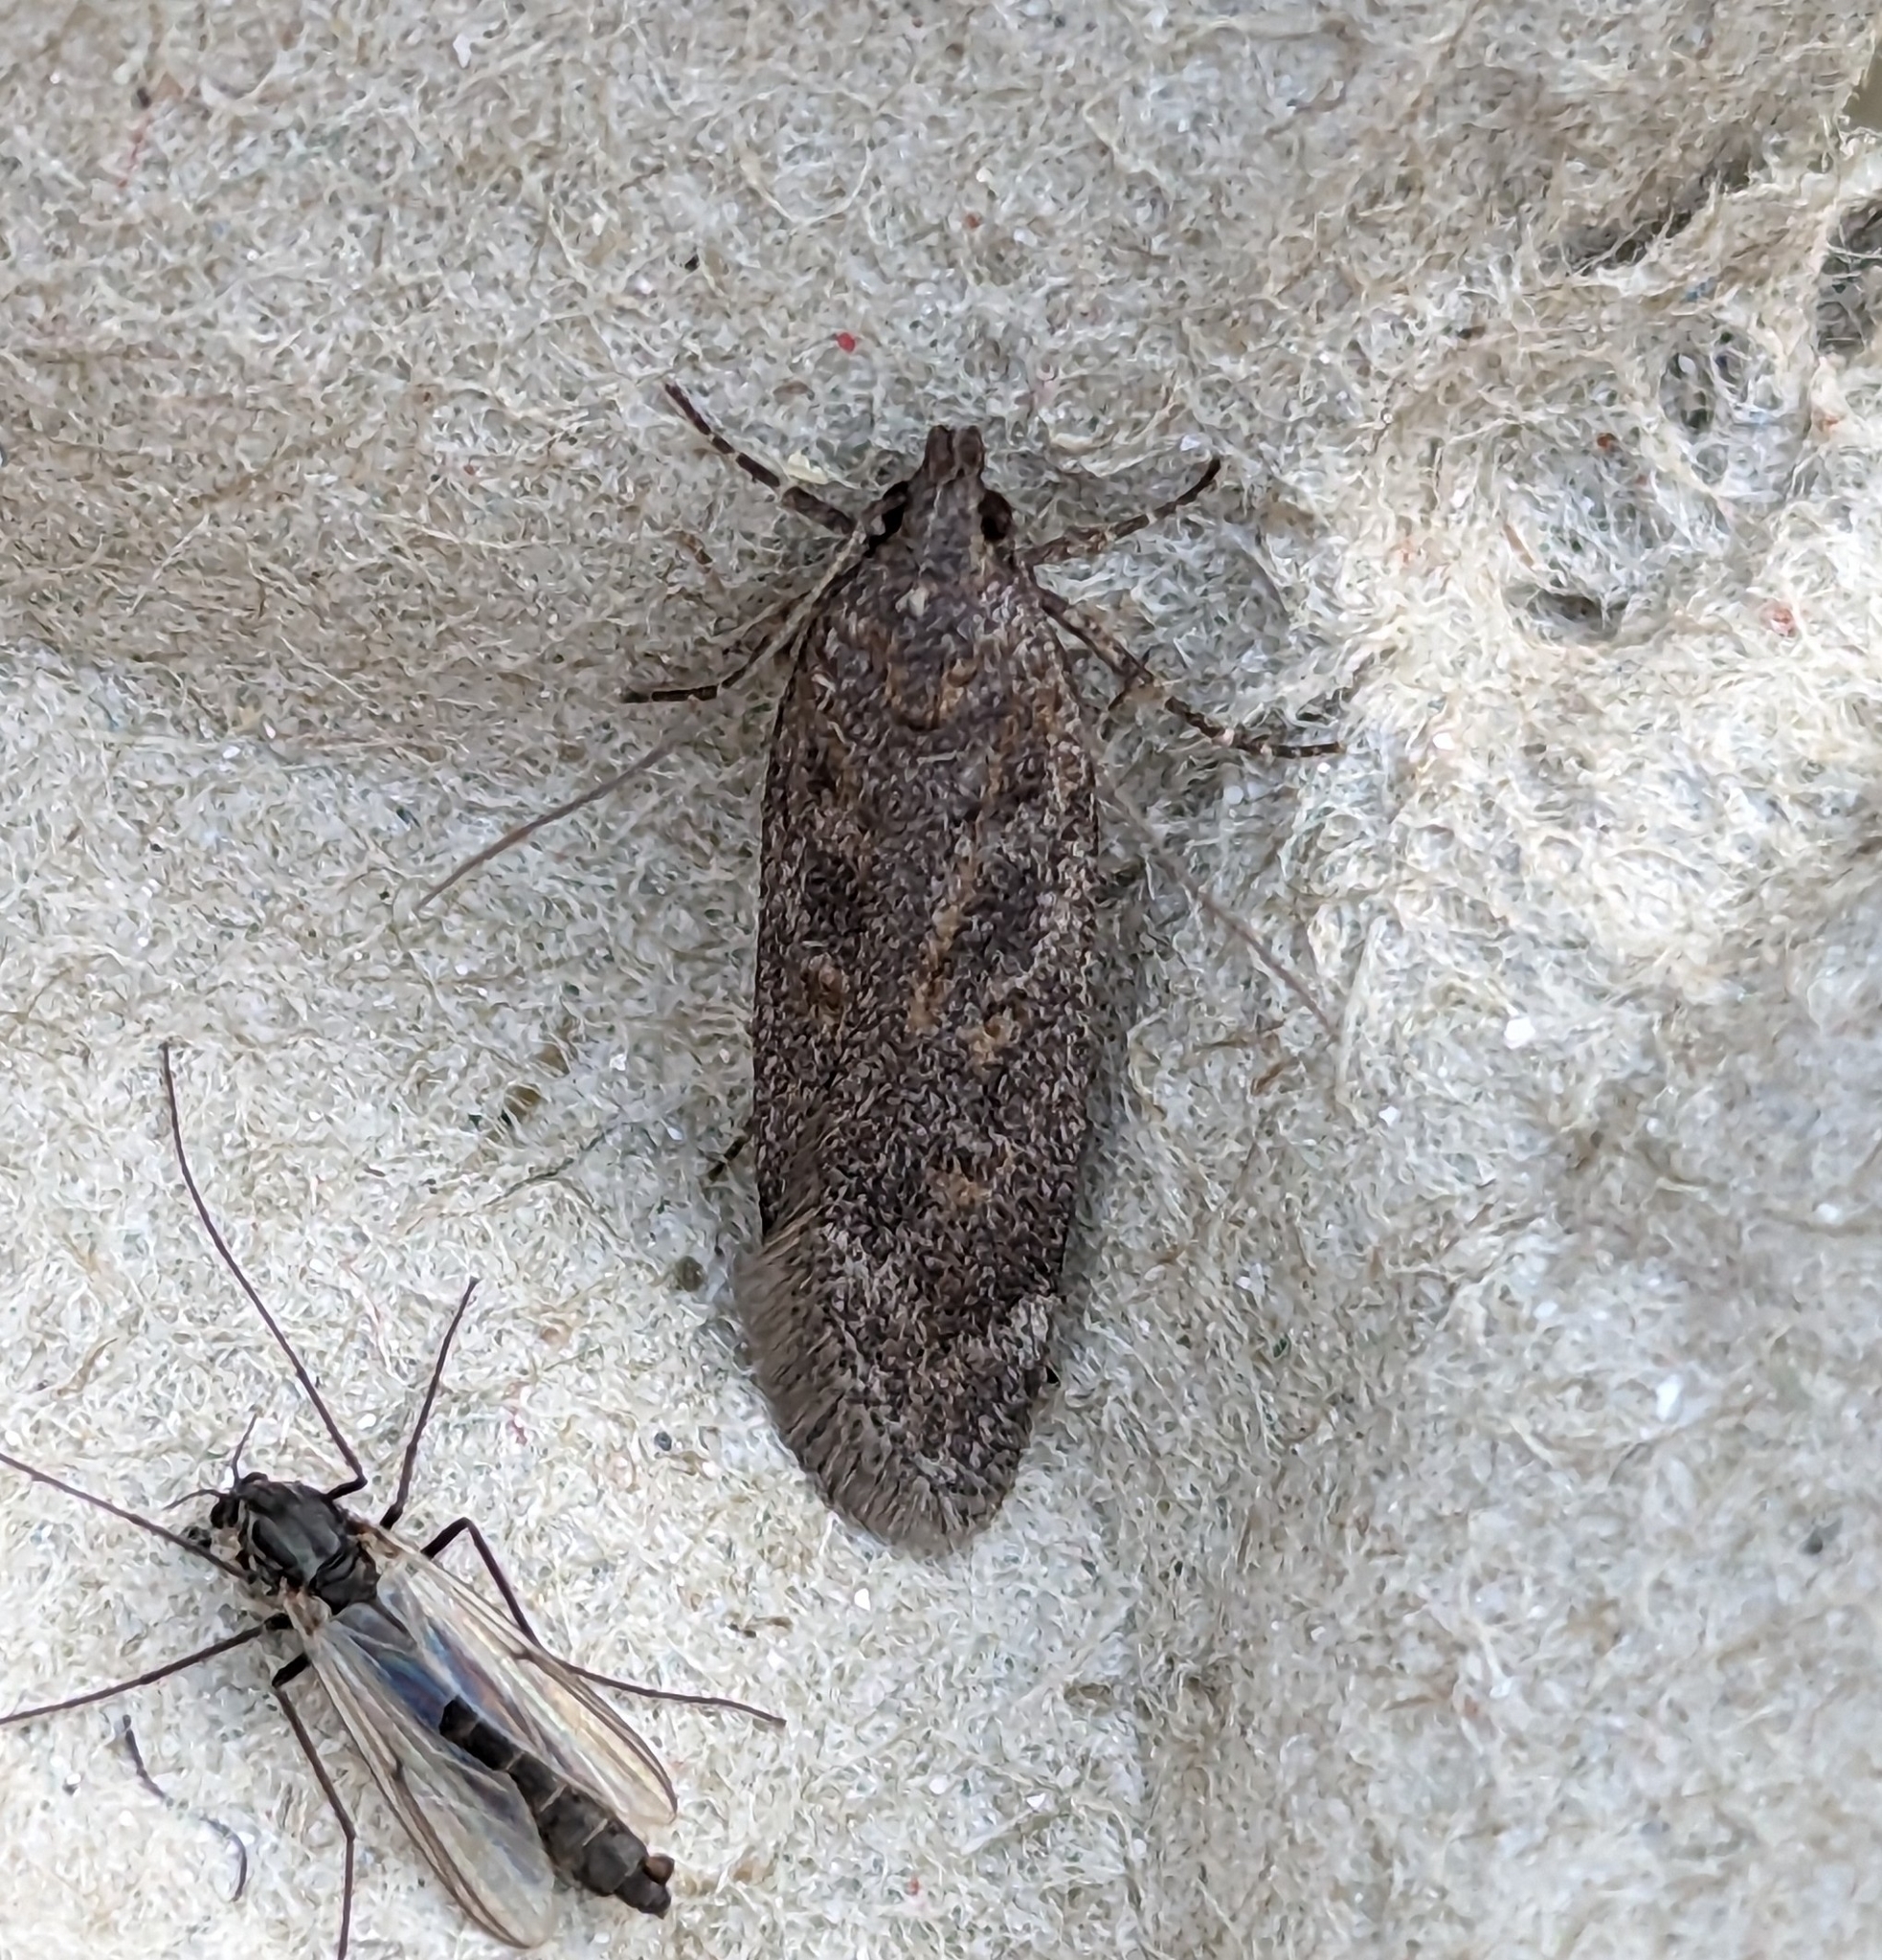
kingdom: Animalia
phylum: Arthropoda
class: Insecta
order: Lepidoptera
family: Gelechiidae
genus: Filatima
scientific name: Filatima abactella
